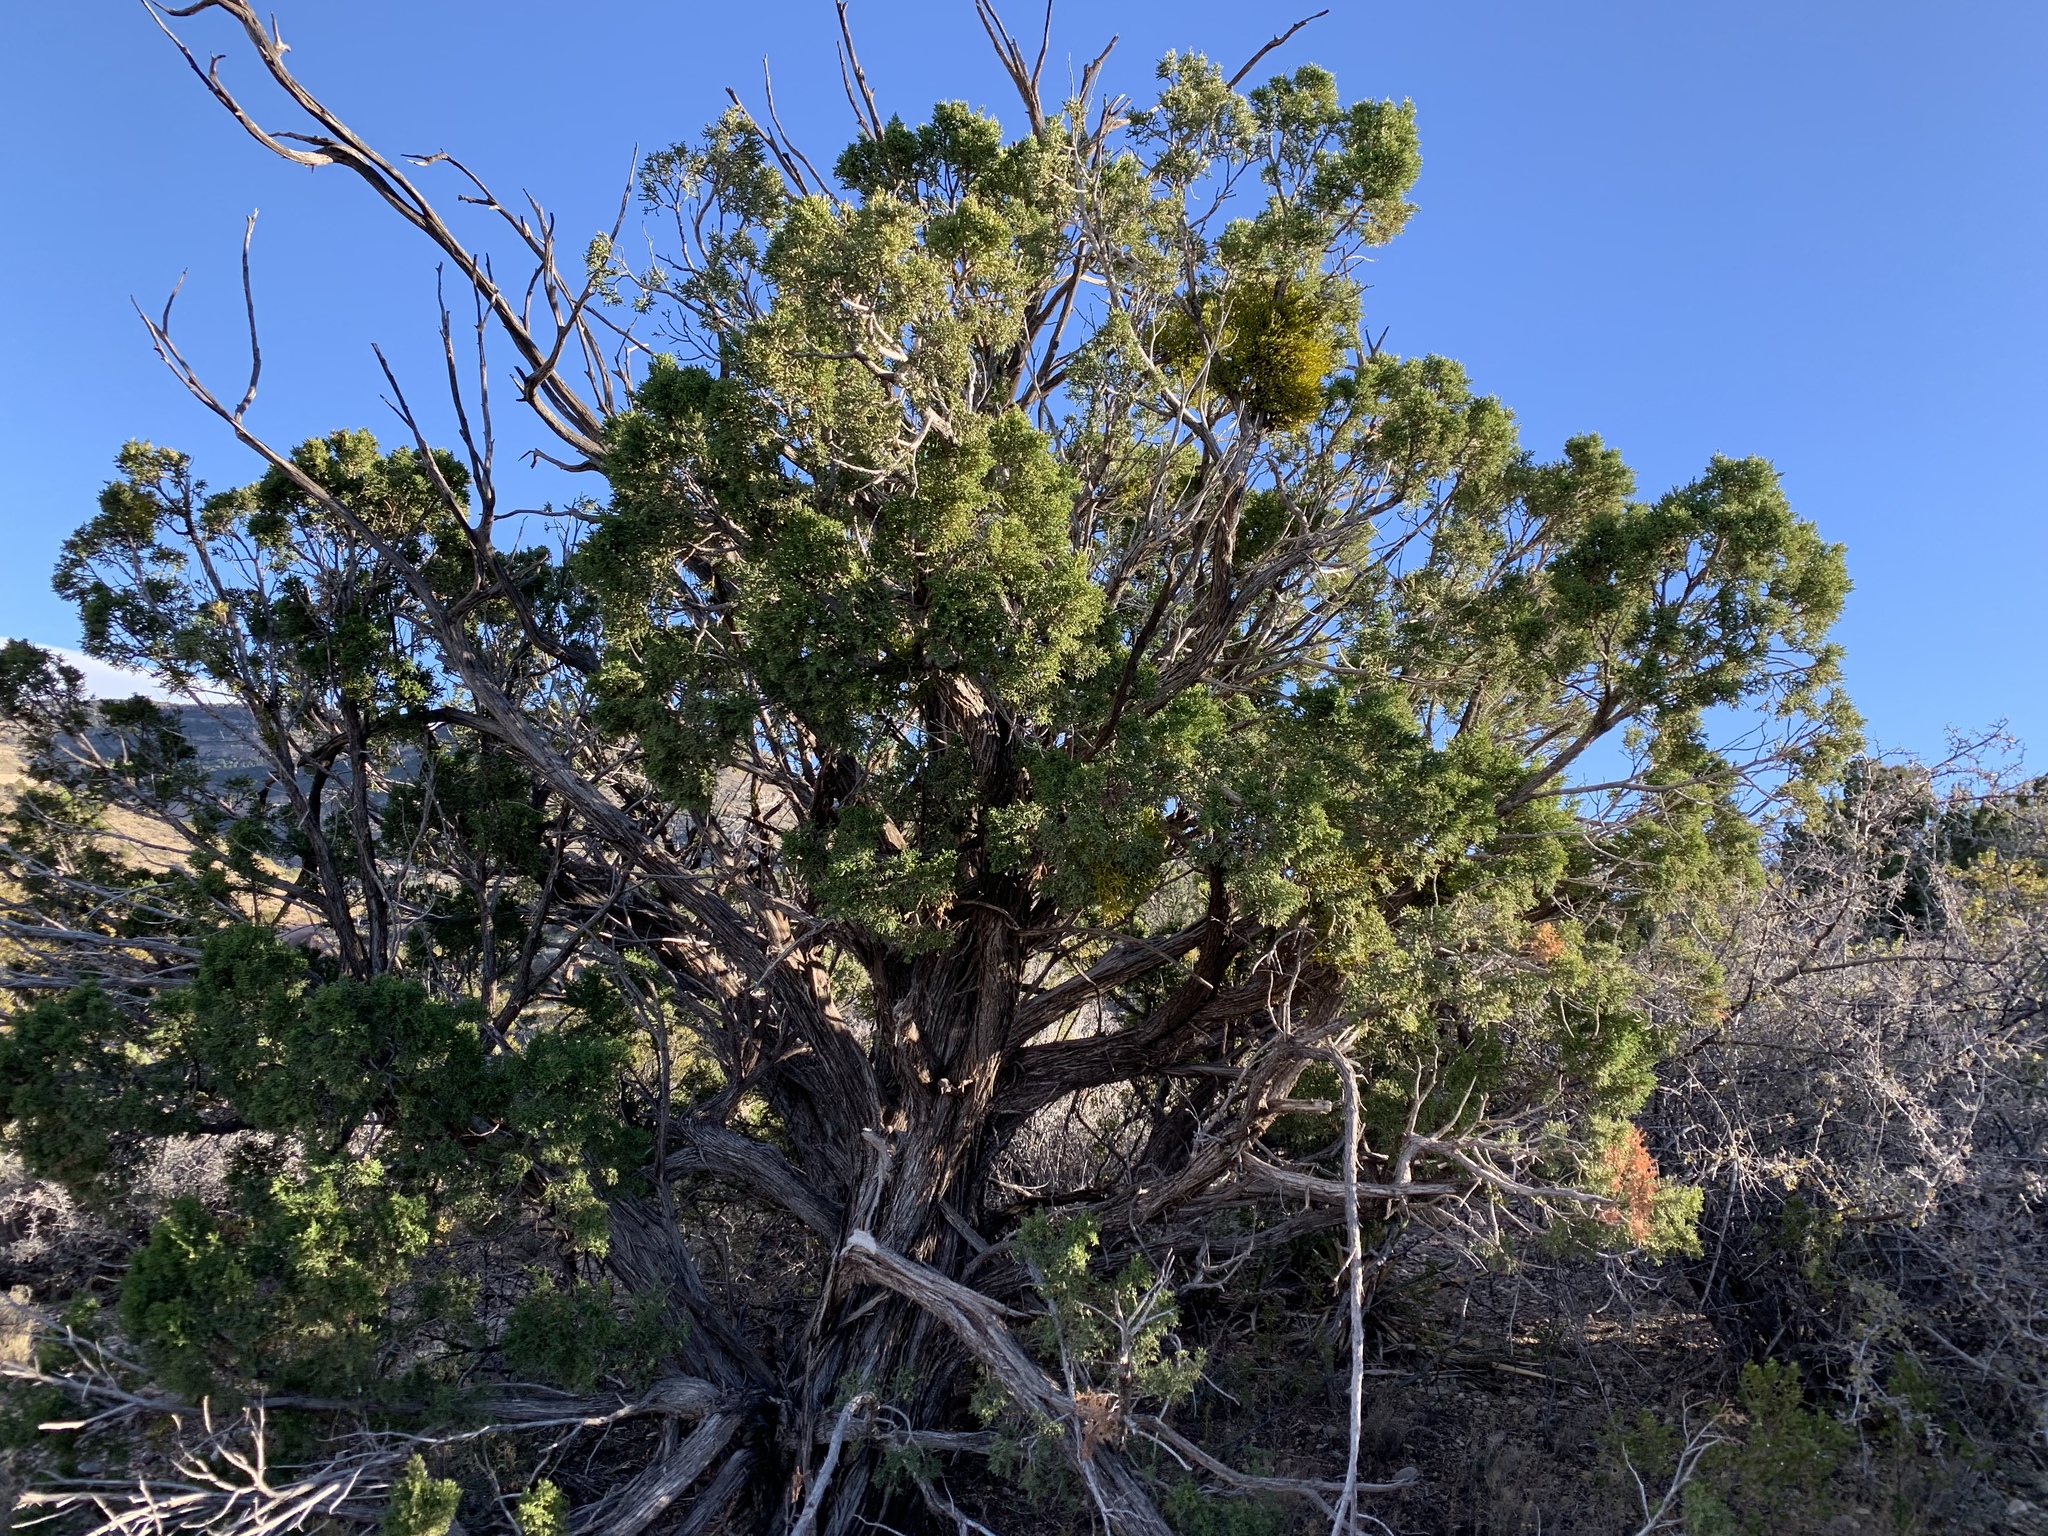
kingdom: Plantae
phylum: Tracheophyta
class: Pinopsida
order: Pinales
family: Cupressaceae
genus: Juniperus
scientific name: Juniperus monosperma
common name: One-seed juniper
